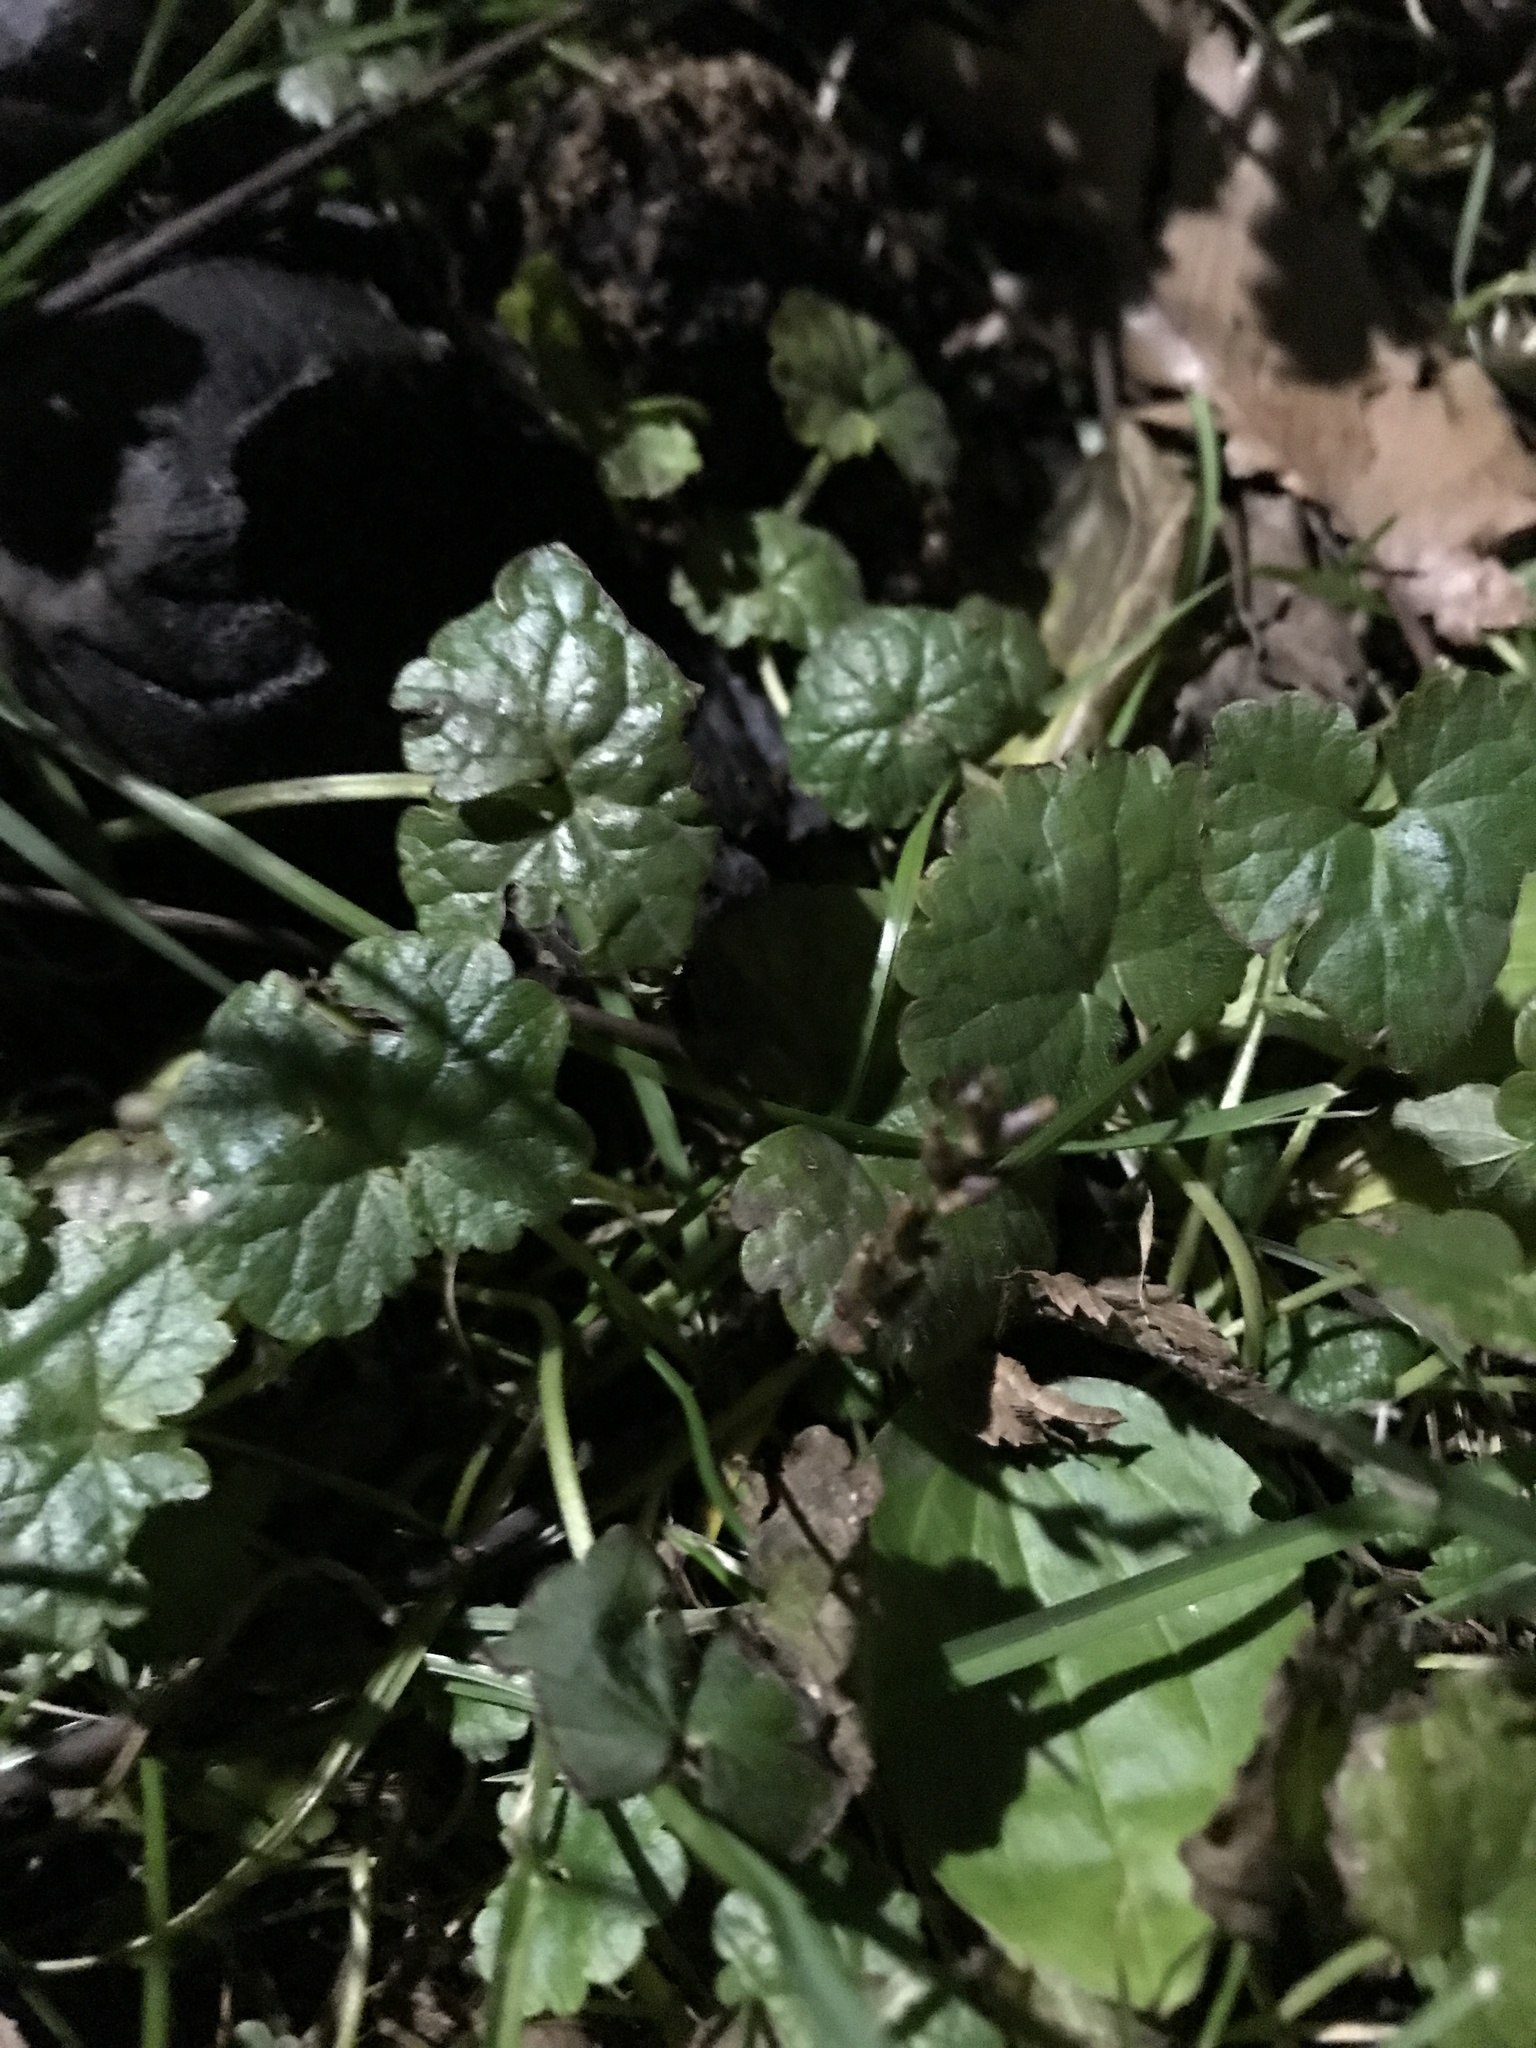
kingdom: Plantae
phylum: Tracheophyta
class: Magnoliopsida
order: Lamiales
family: Lamiaceae
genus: Glechoma
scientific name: Glechoma hederacea
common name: Ground ivy
